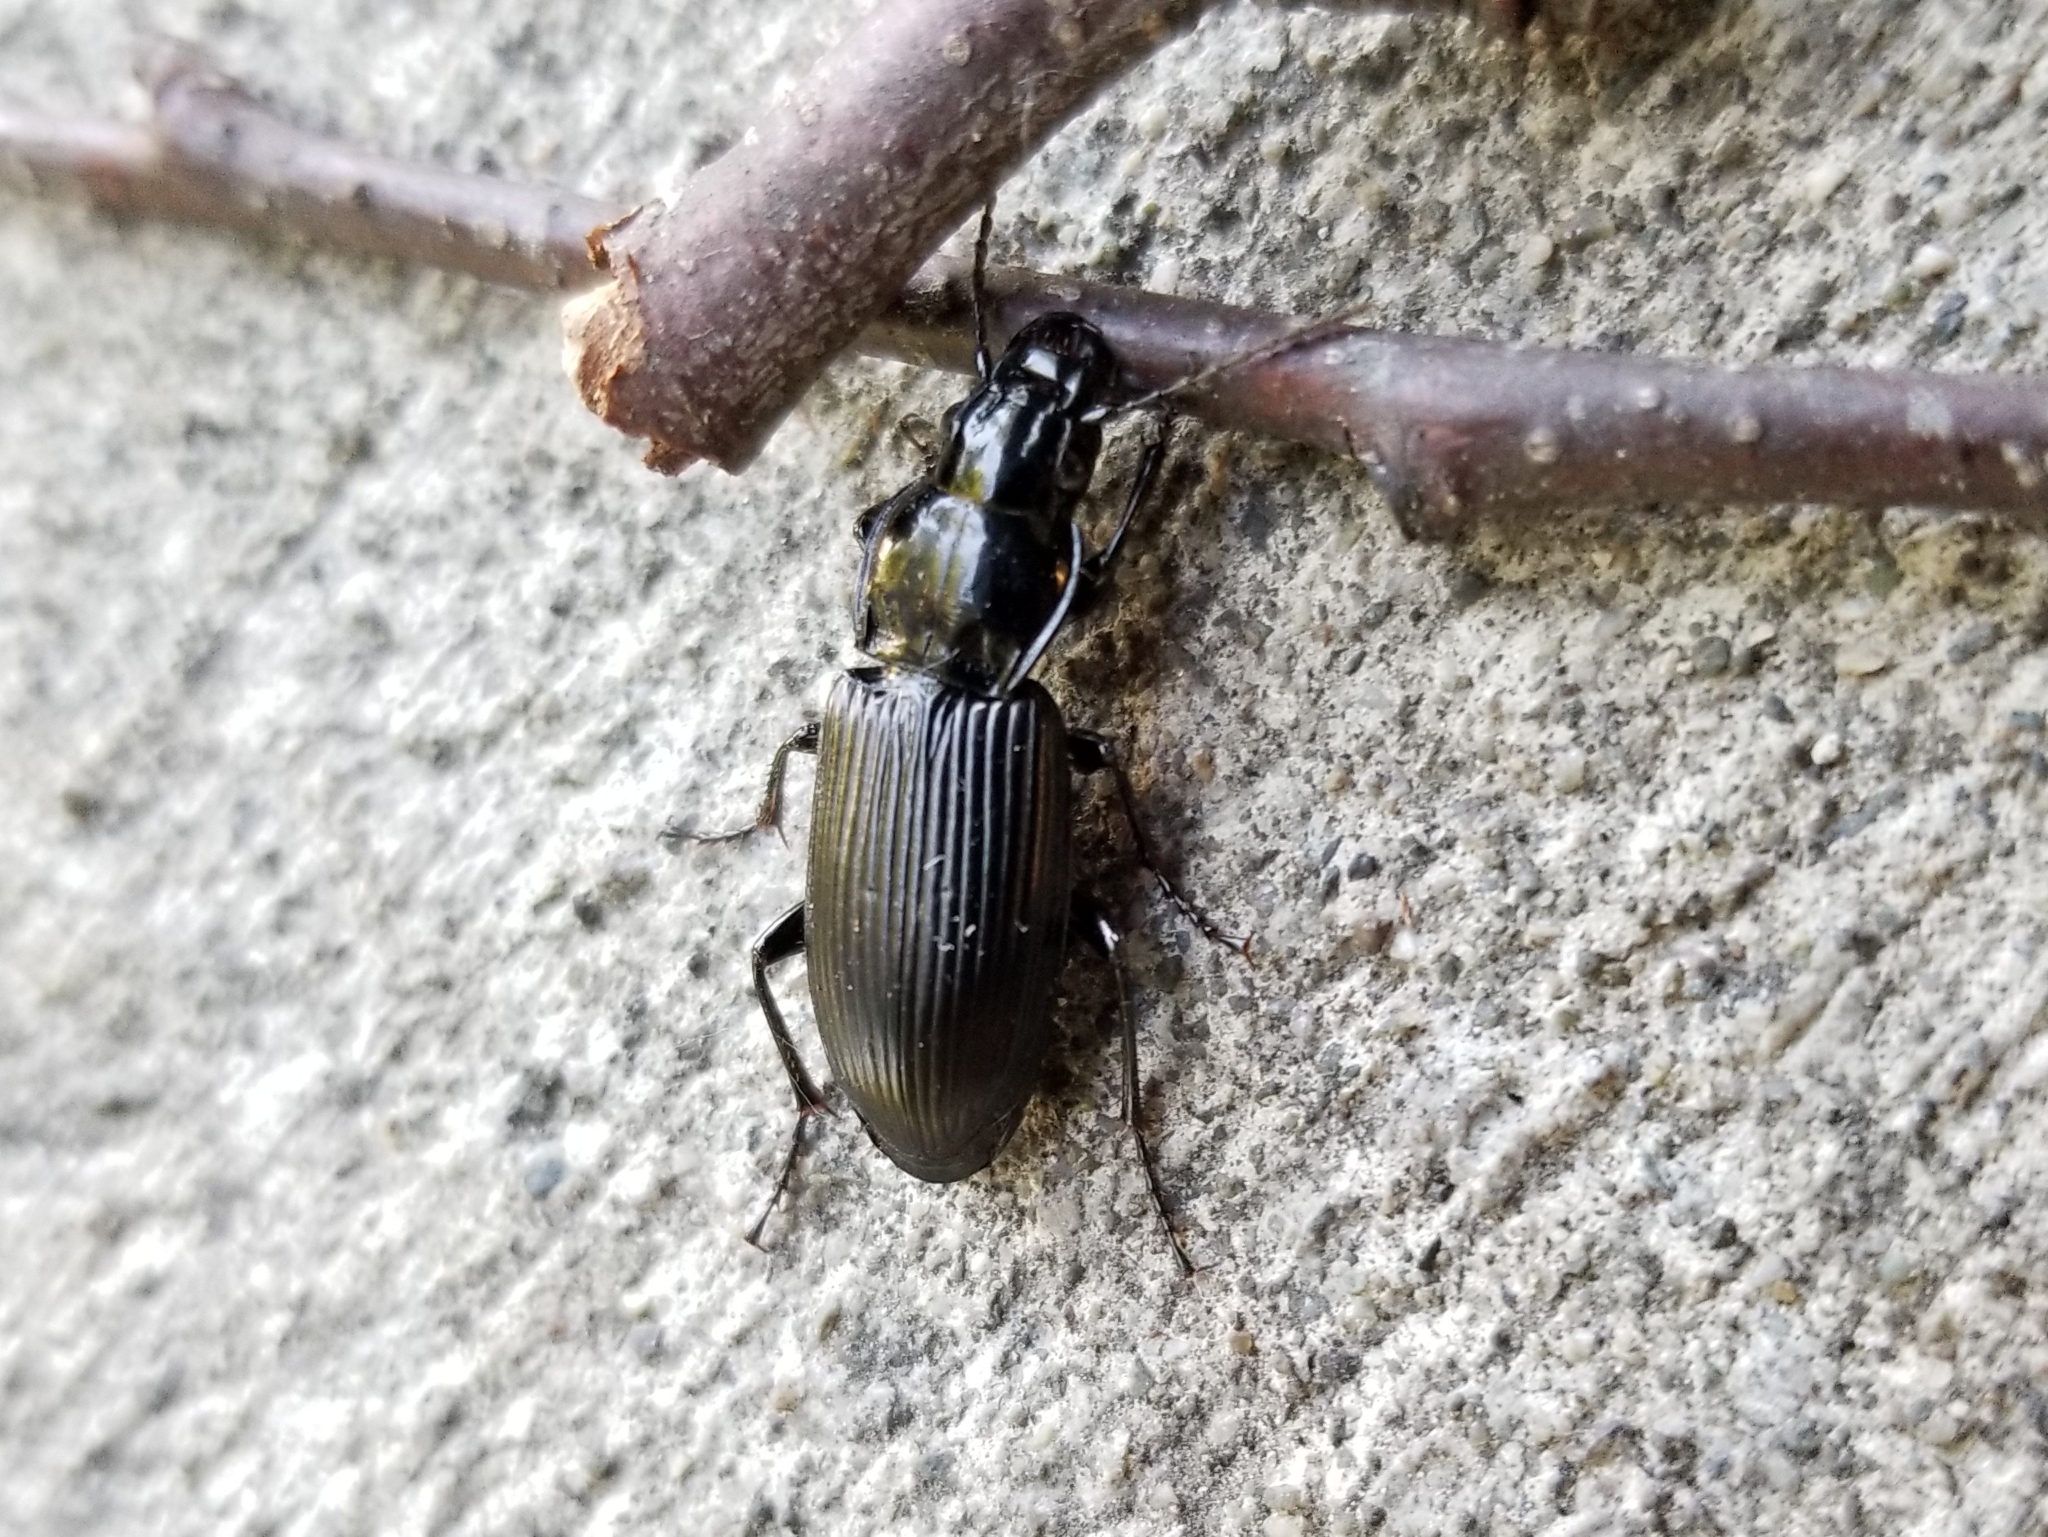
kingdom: Animalia
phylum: Arthropoda
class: Insecta
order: Coleoptera
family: Carabidae
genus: Pterostichus
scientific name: Pterostichus melanarius
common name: European dark harp ground beetle
